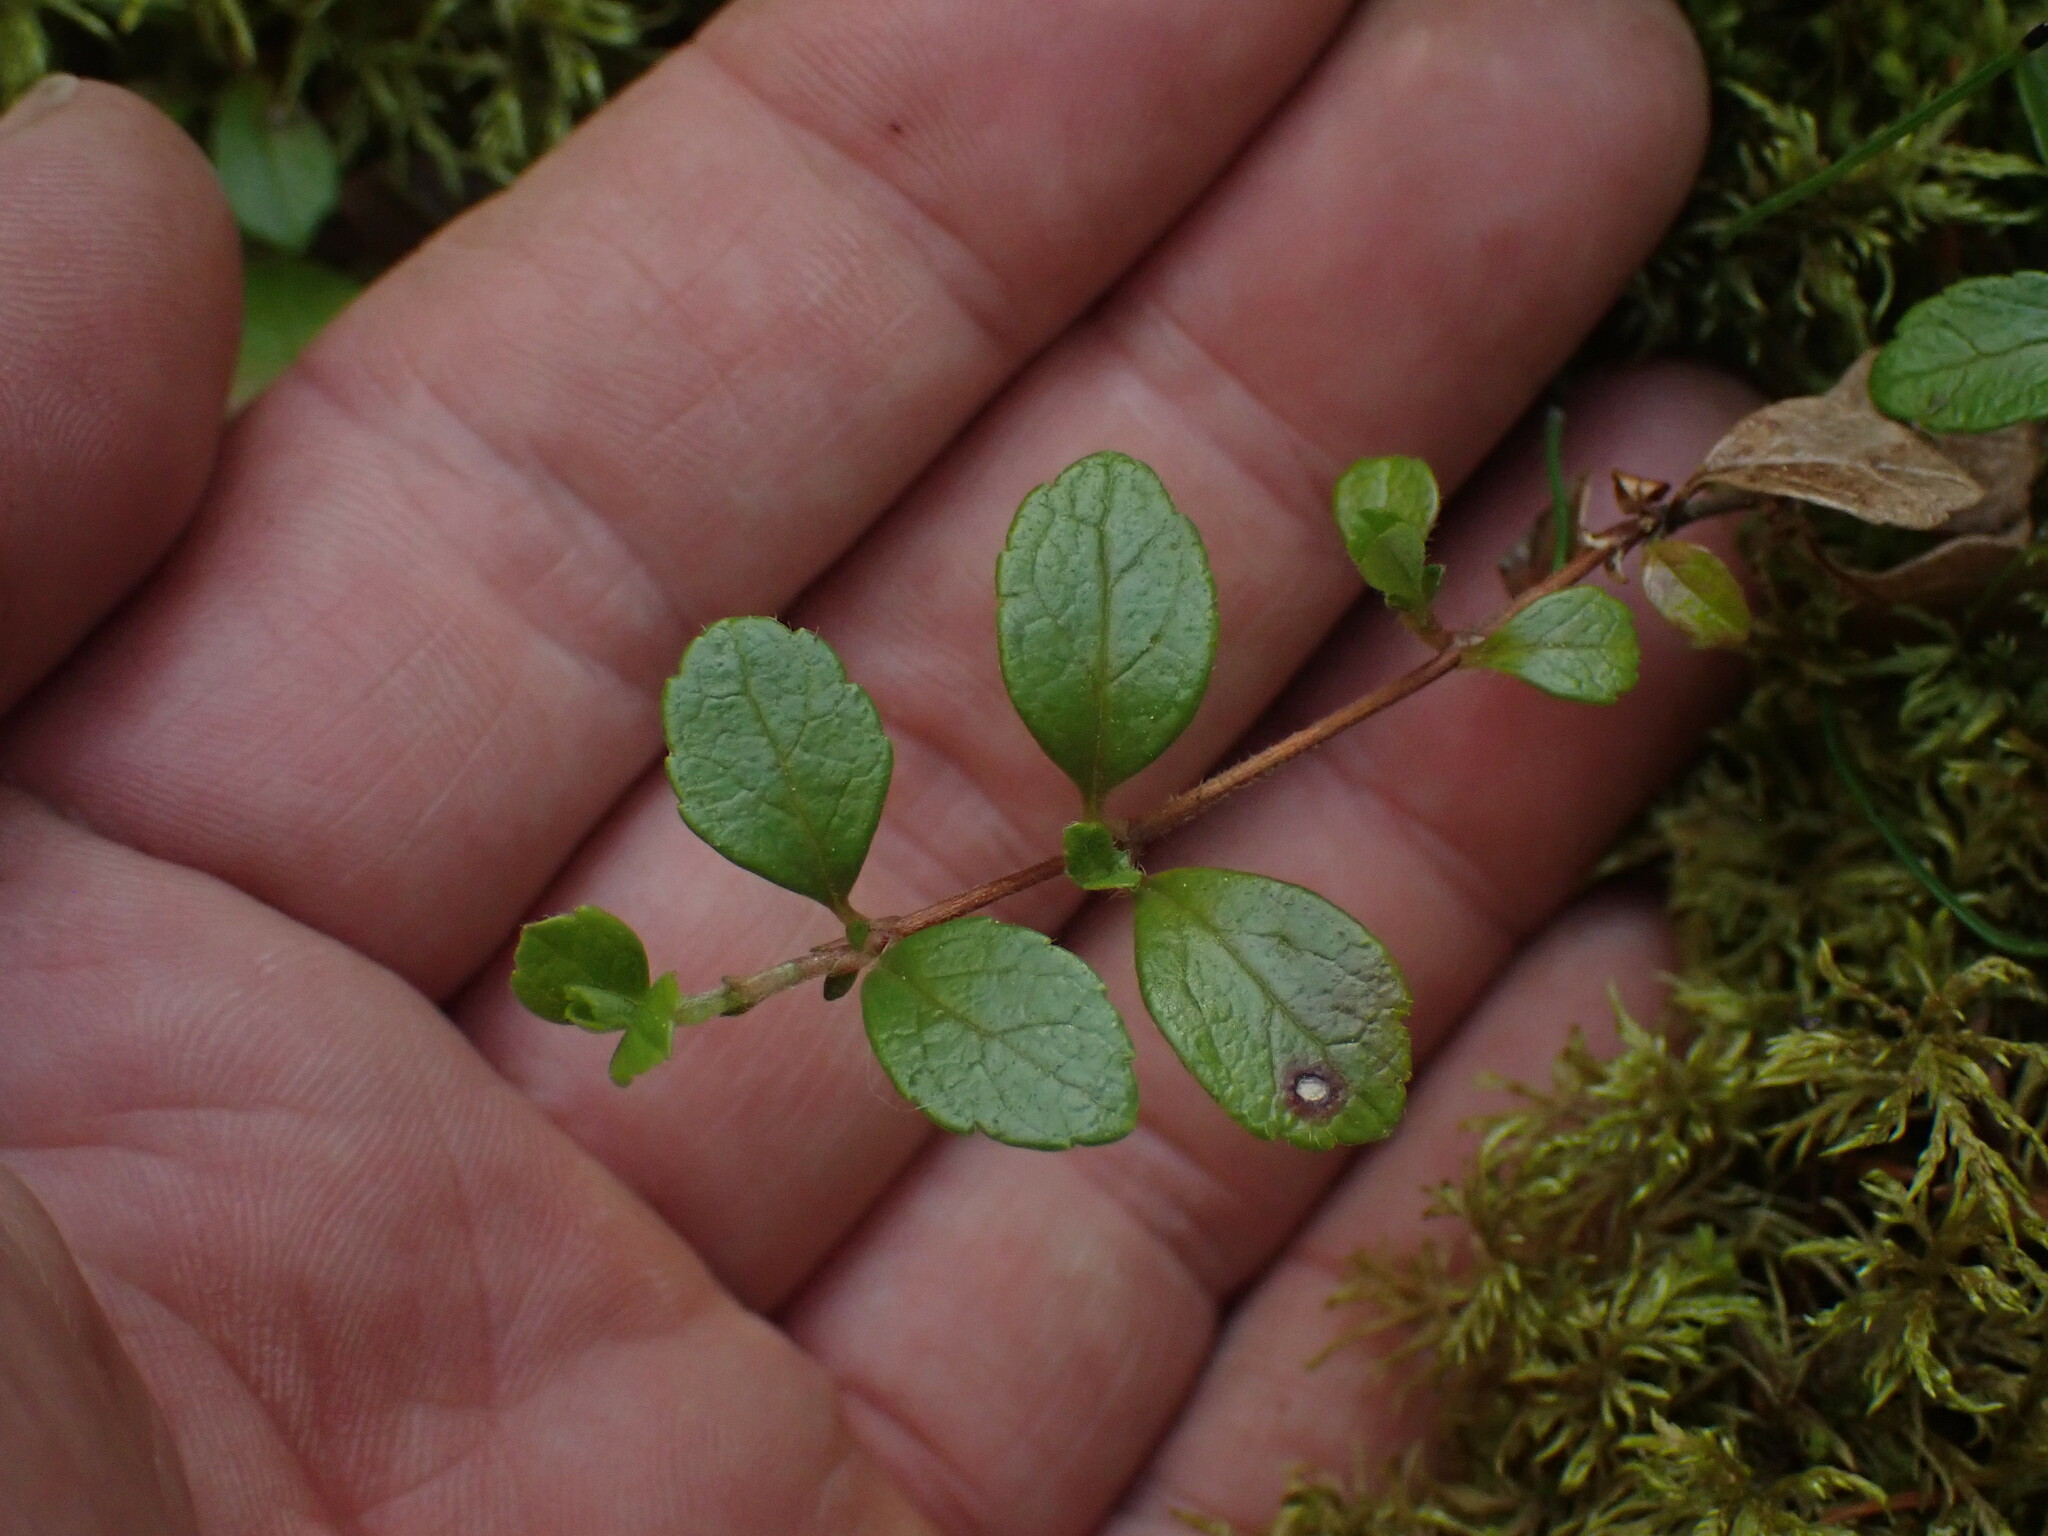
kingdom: Plantae
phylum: Tracheophyta
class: Magnoliopsida
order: Dipsacales
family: Caprifoliaceae
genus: Linnaea
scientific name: Linnaea borealis
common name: Twinflower
